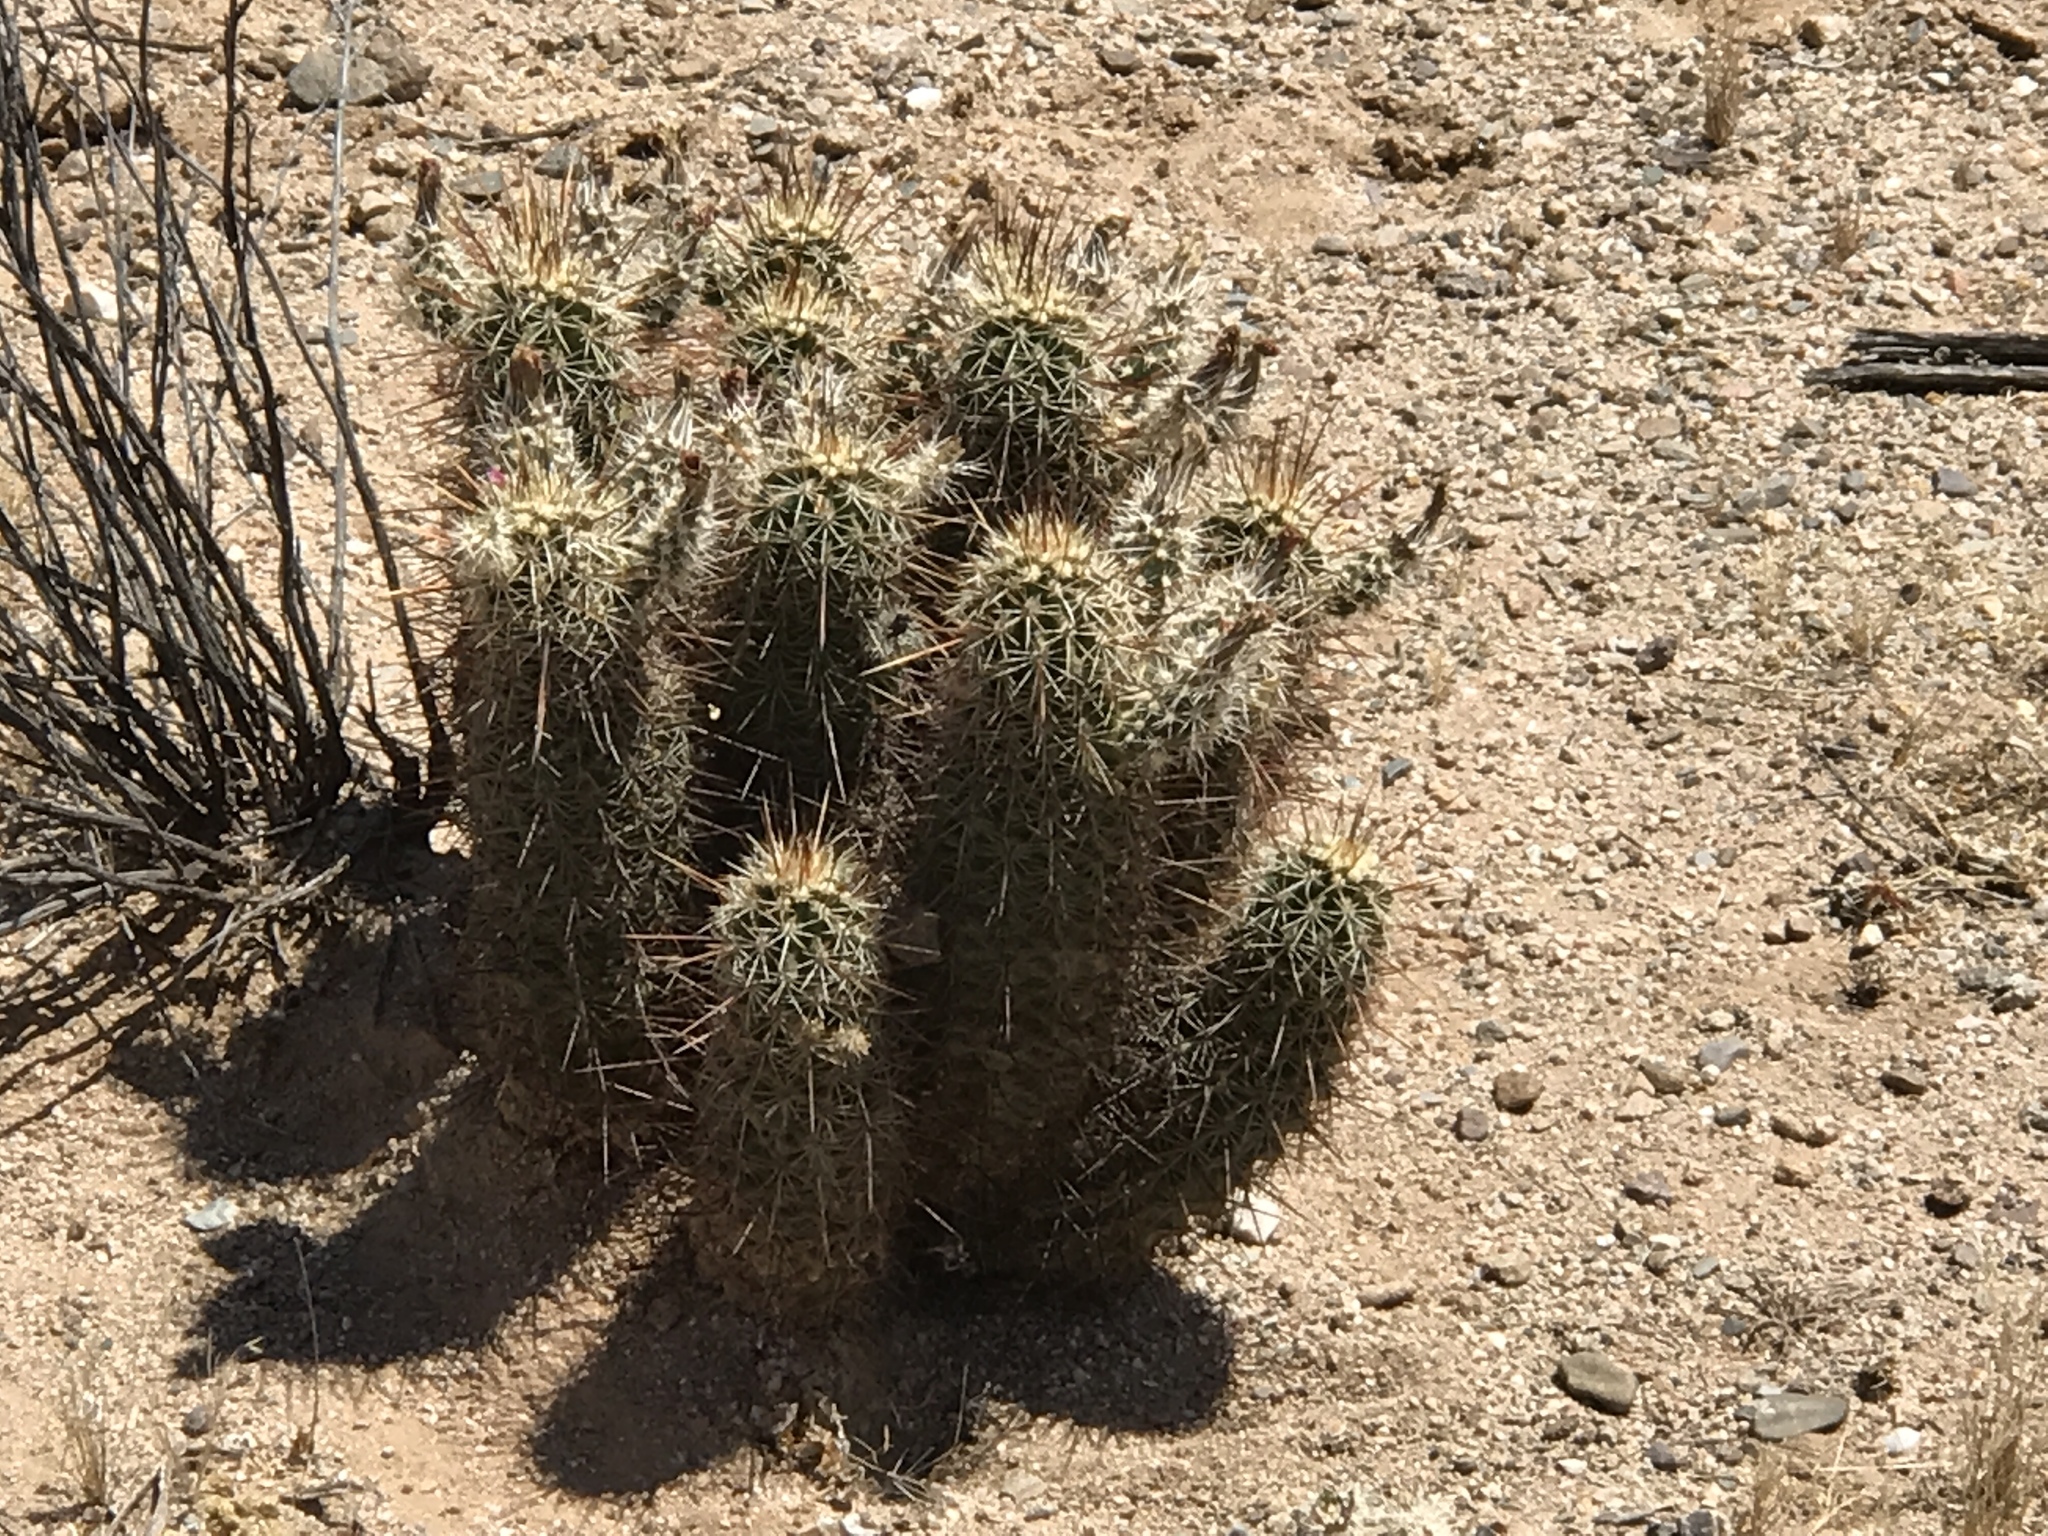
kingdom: Plantae
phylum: Tracheophyta
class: Magnoliopsida
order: Caryophyllales
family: Cactaceae
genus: Echinocereus
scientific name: Echinocereus fasciculatus
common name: Bundle hedgehog
